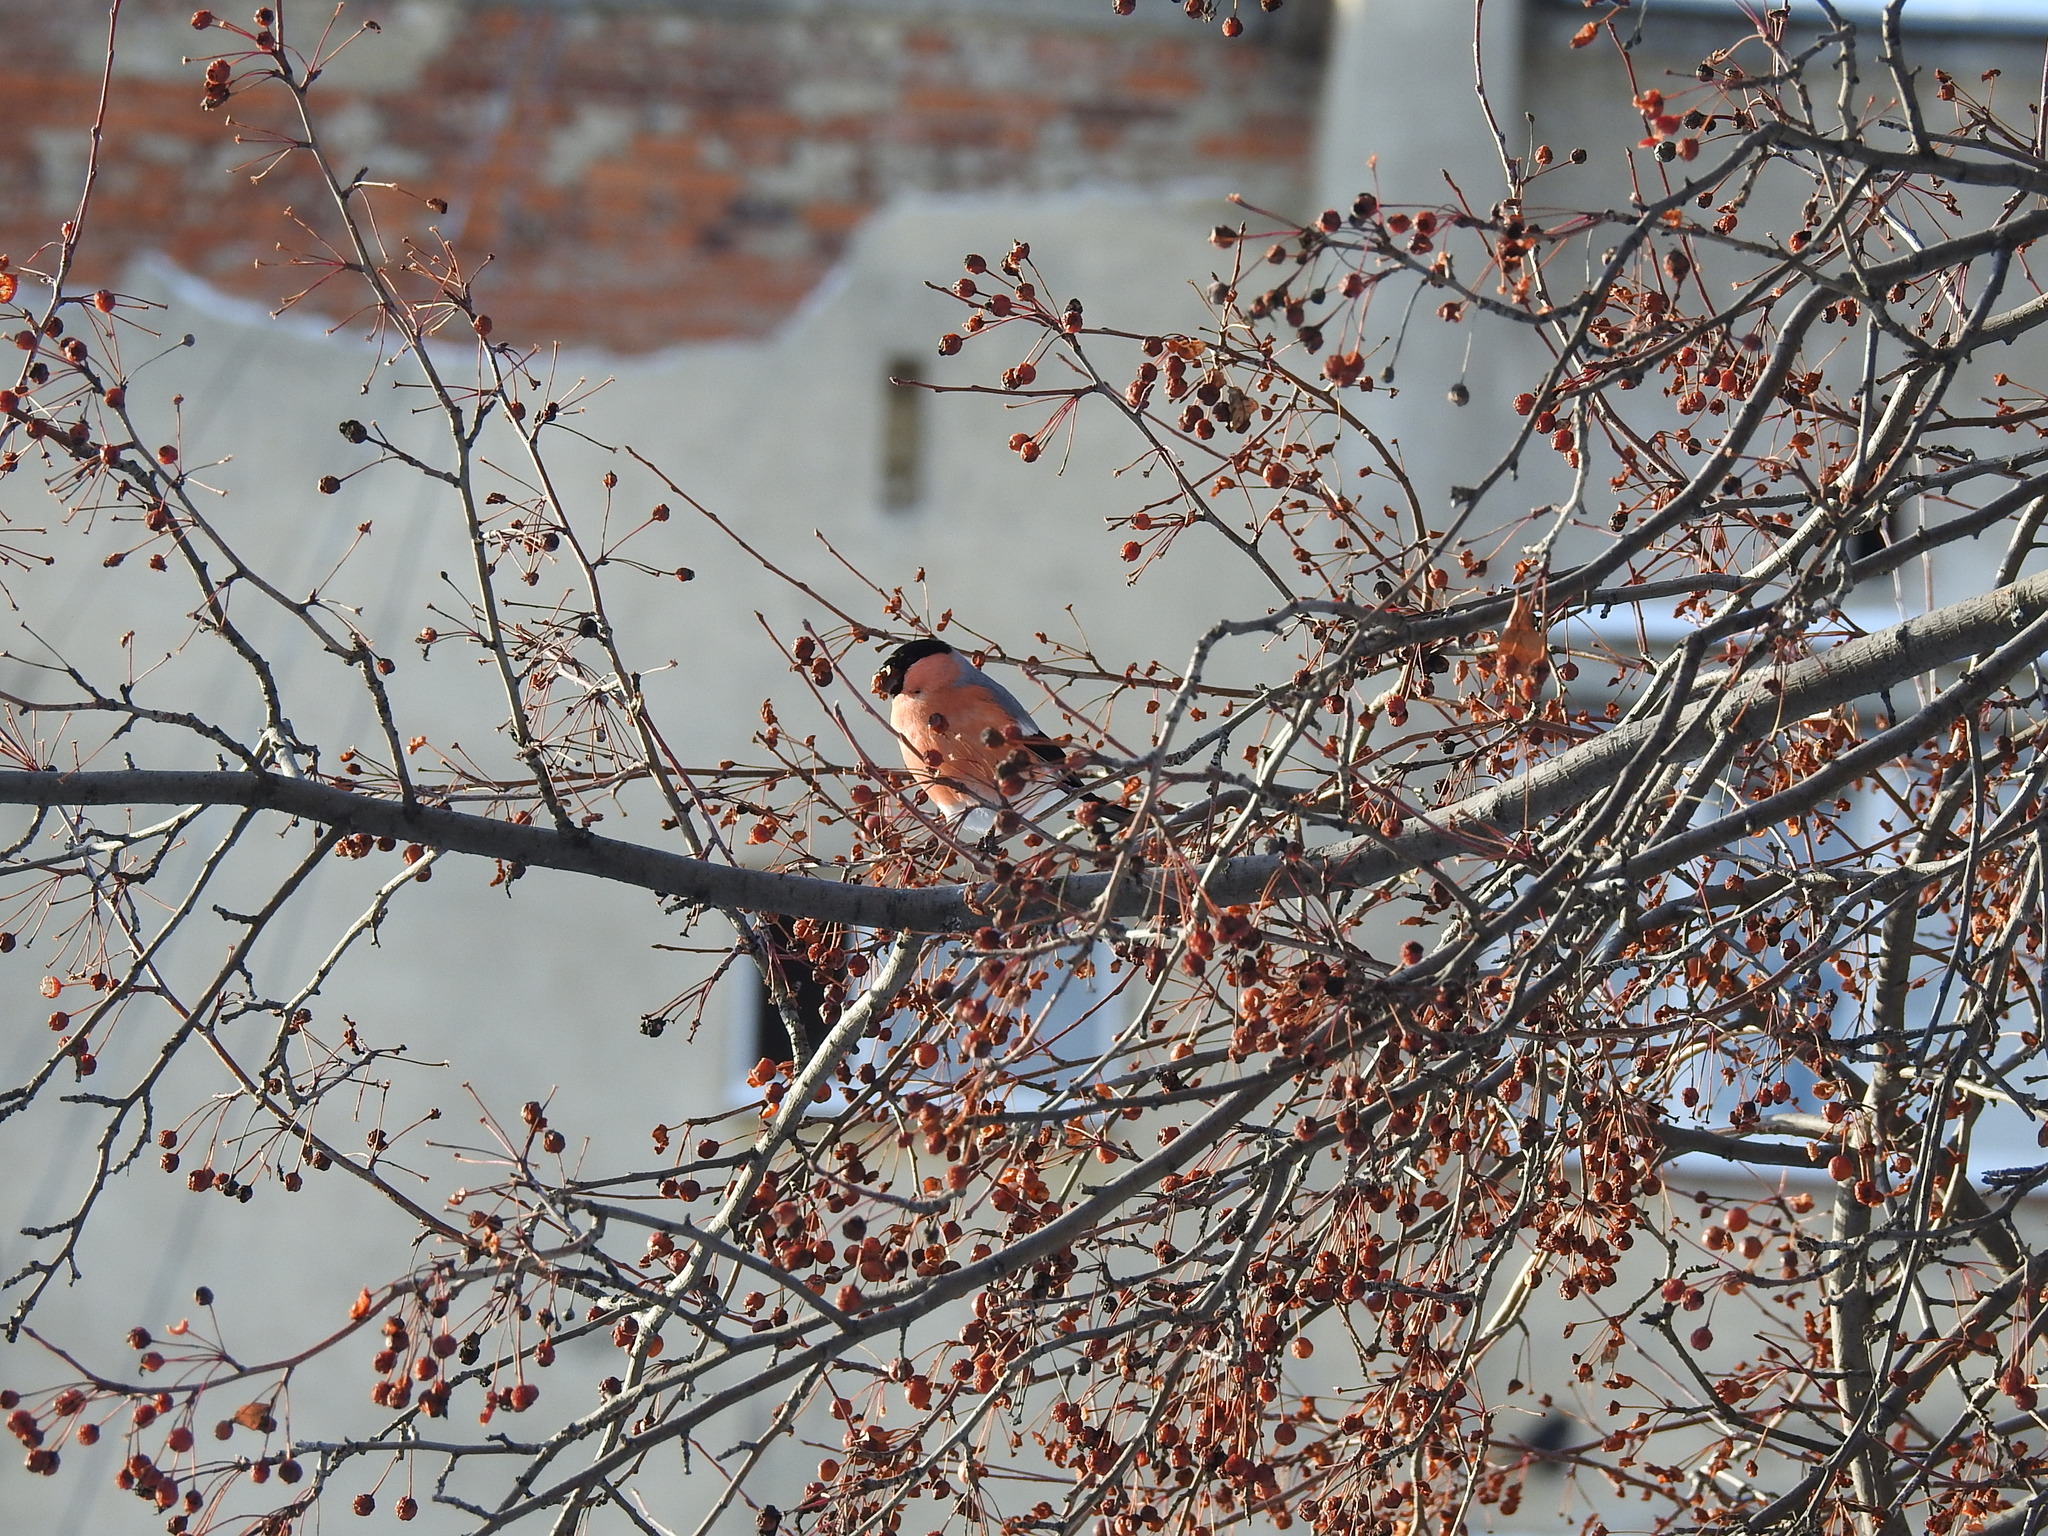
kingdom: Animalia
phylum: Chordata
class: Aves
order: Passeriformes
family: Fringillidae
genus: Pyrrhula
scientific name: Pyrrhula pyrrhula
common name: Eurasian bullfinch
